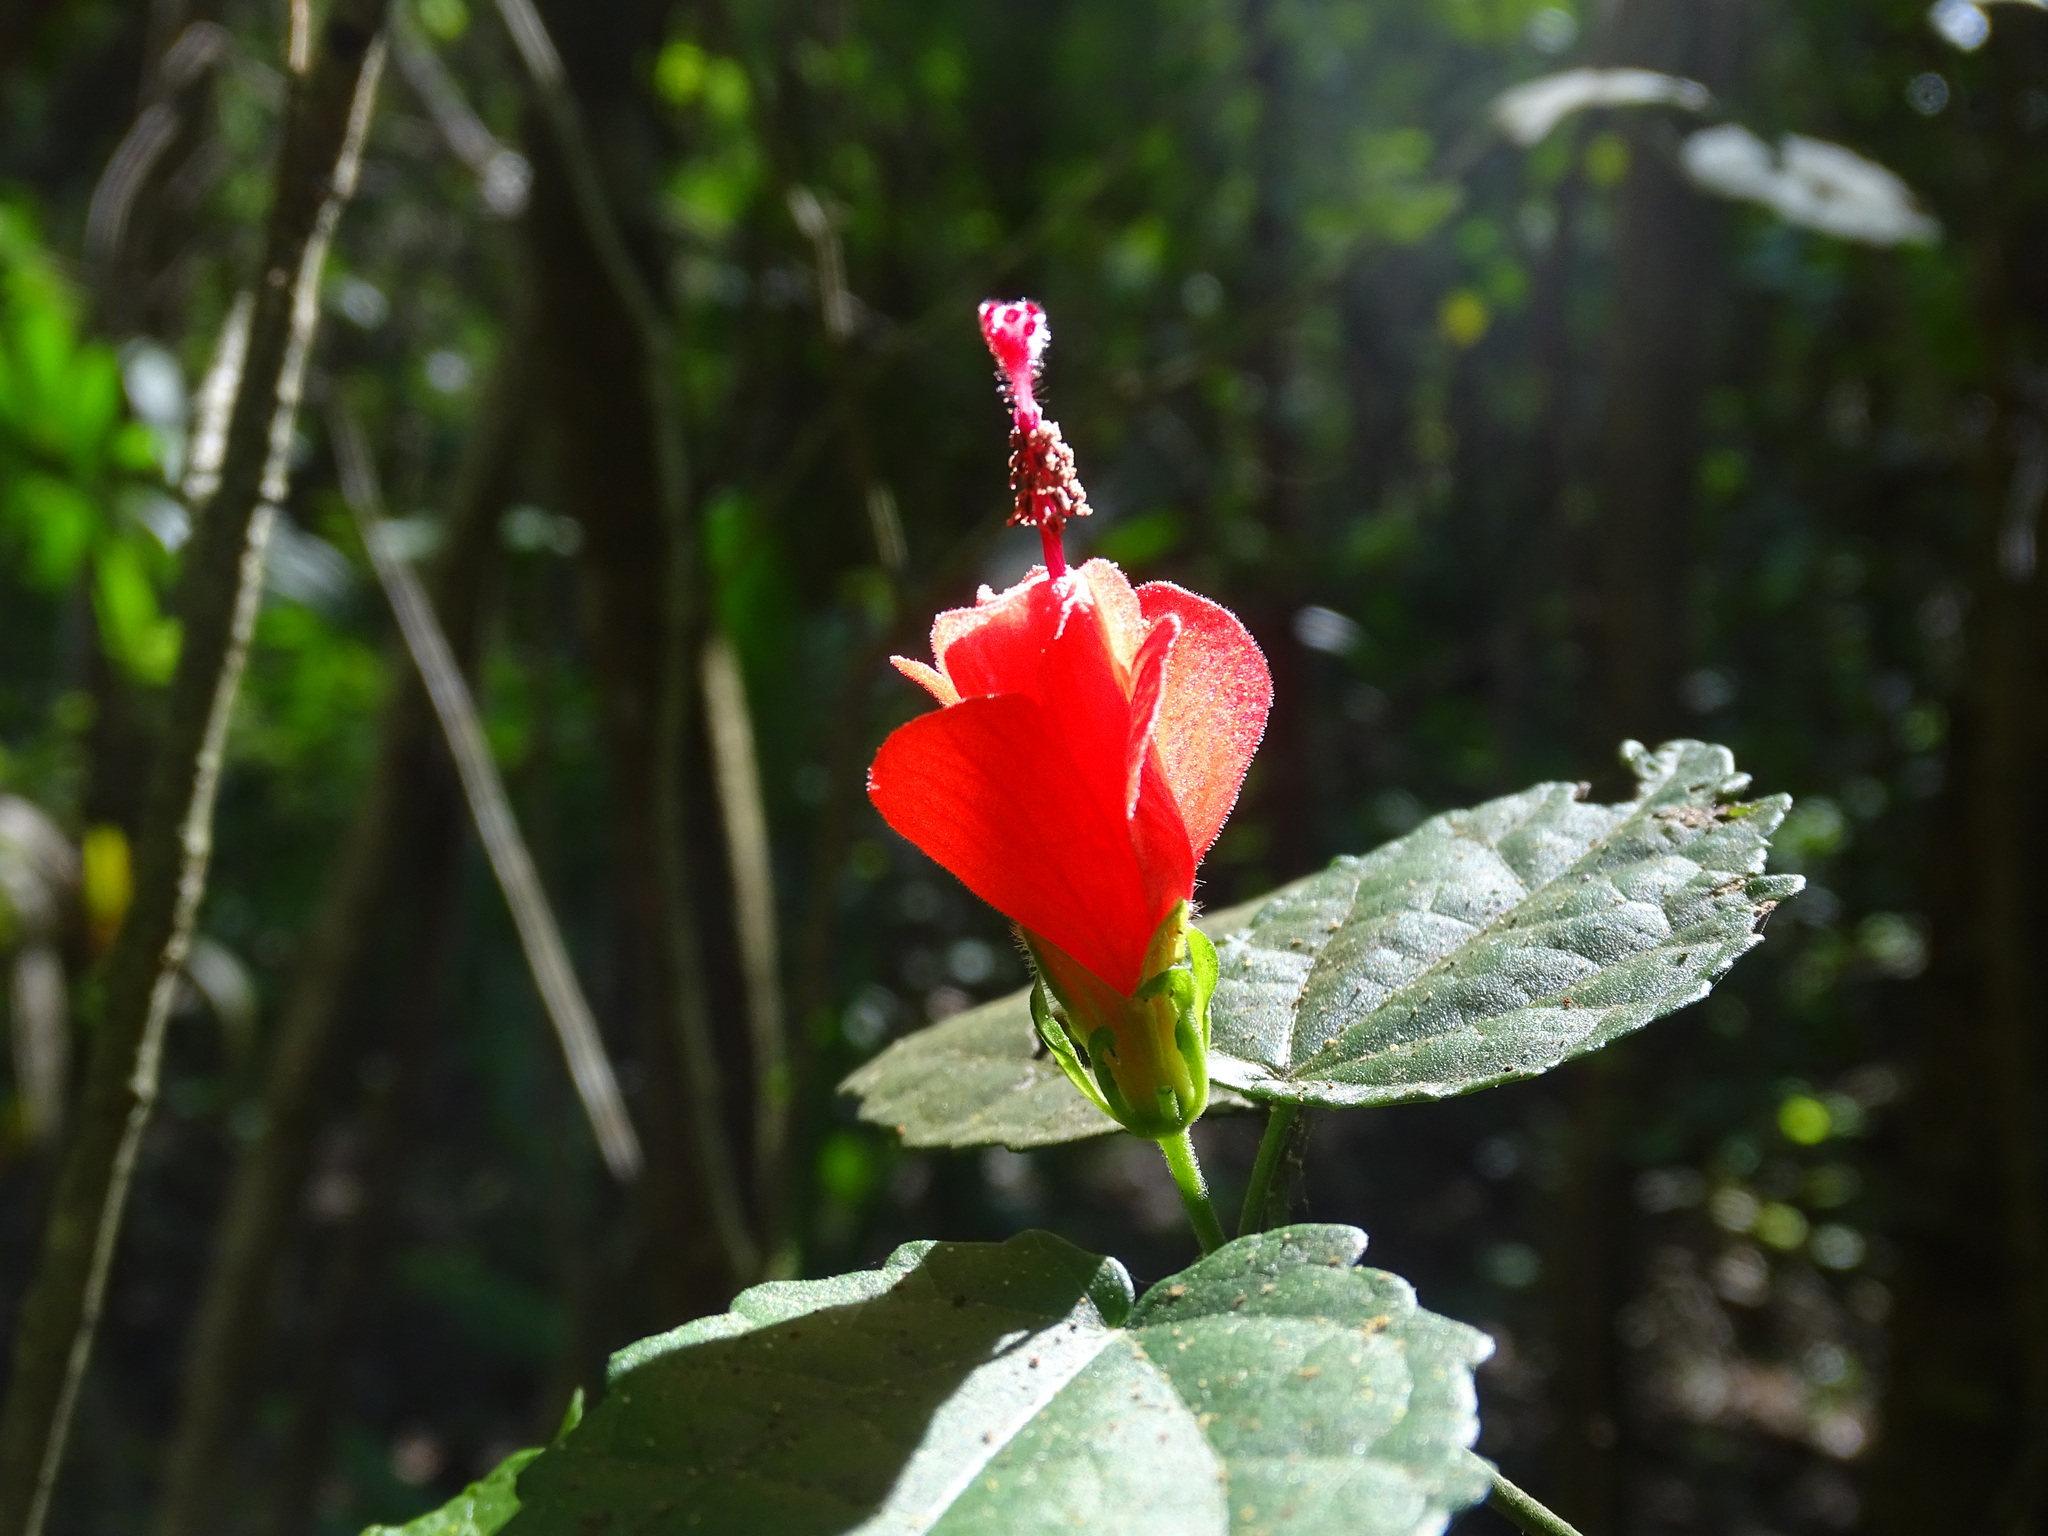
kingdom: Plantae
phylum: Tracheophyta
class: Magnoliopsida
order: Malvales
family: Malvaceae
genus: Malvaviscus
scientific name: Malvaviscus arboreus
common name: Wax mallow
